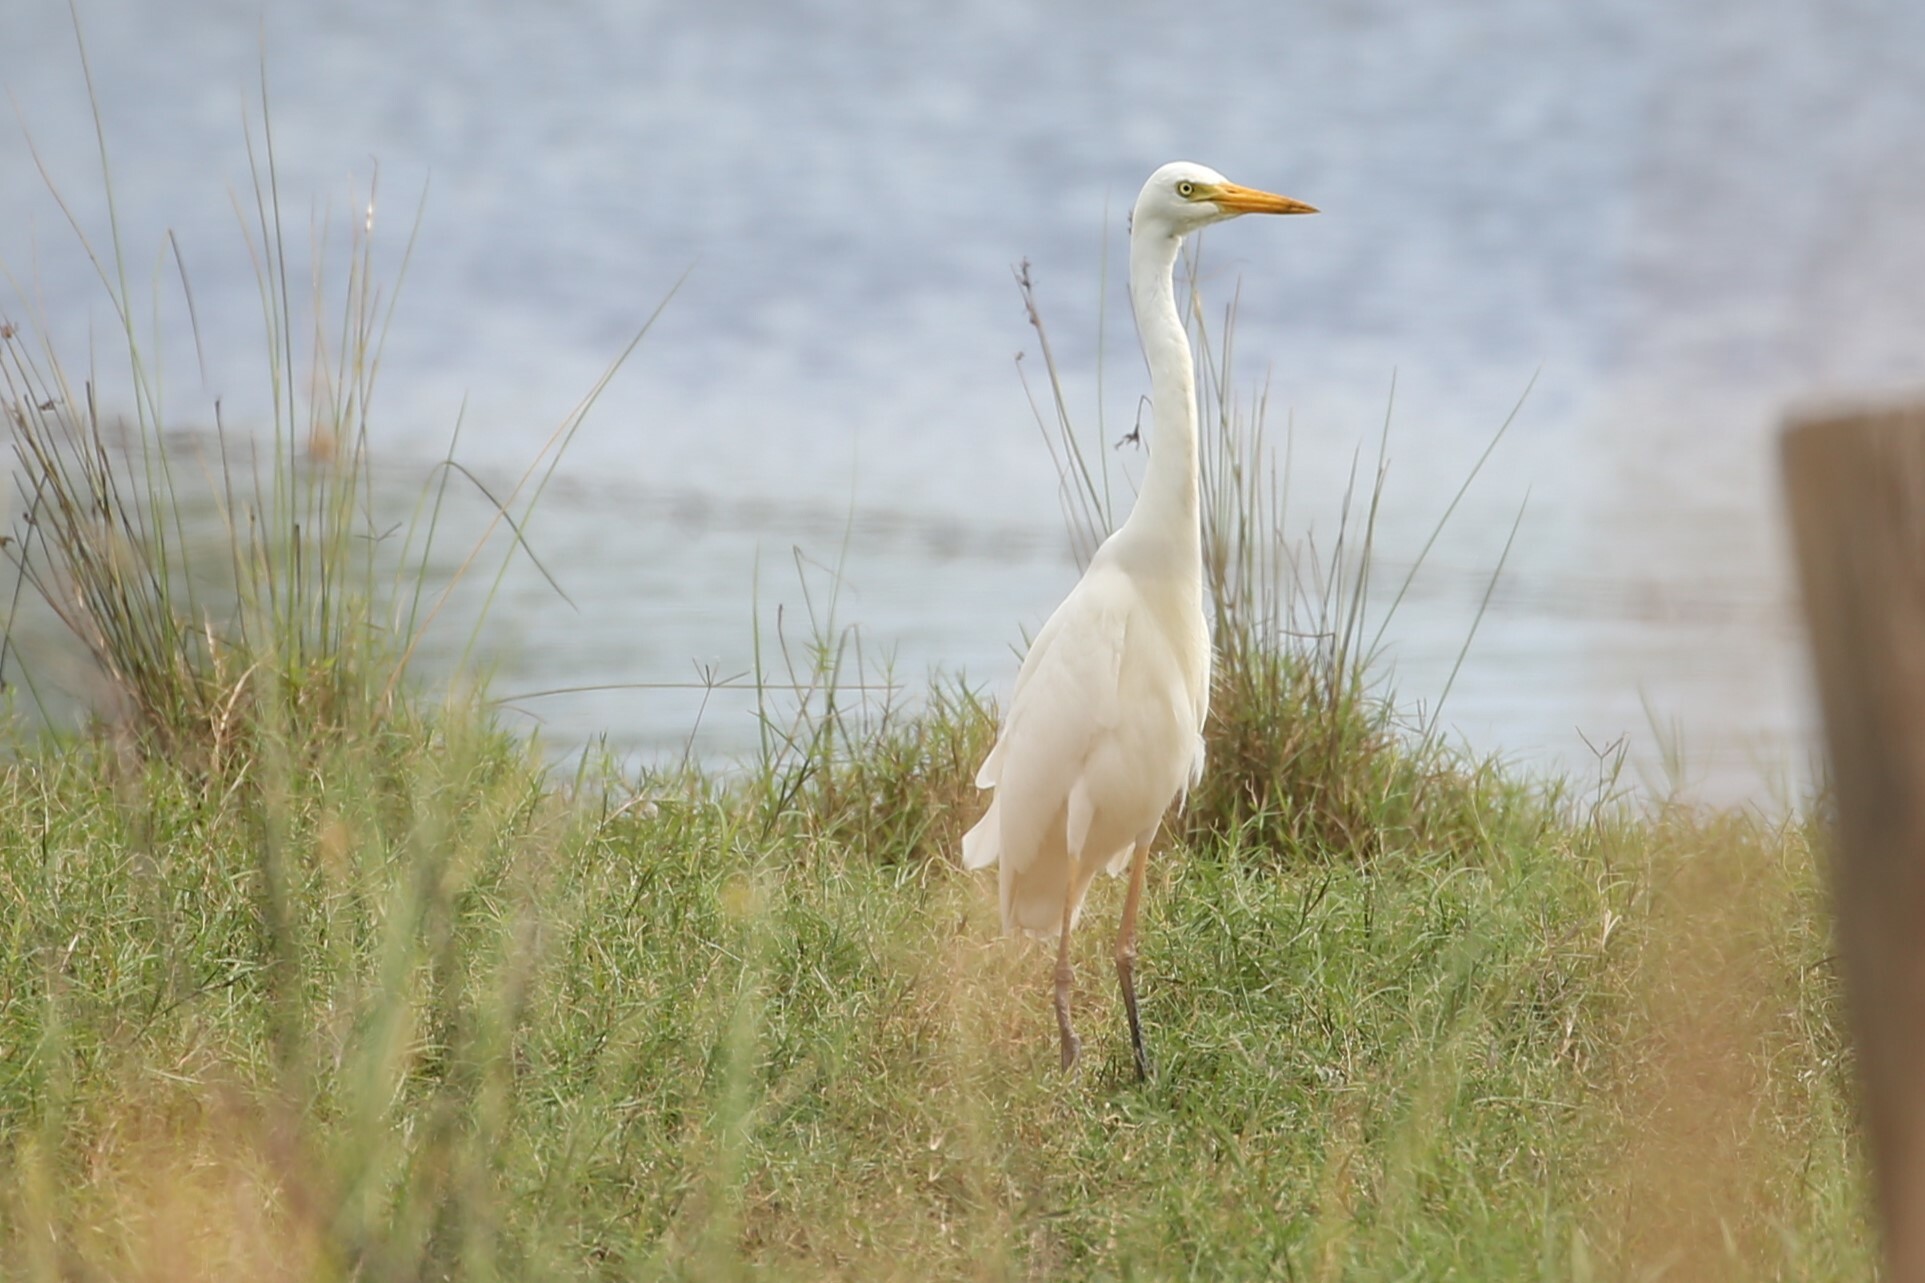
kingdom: Animalia
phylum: Chordata
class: Aves
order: Pelecaniformes
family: Ardeidae
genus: Egretta
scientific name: Egretta intermedia
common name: Intermediate egret
